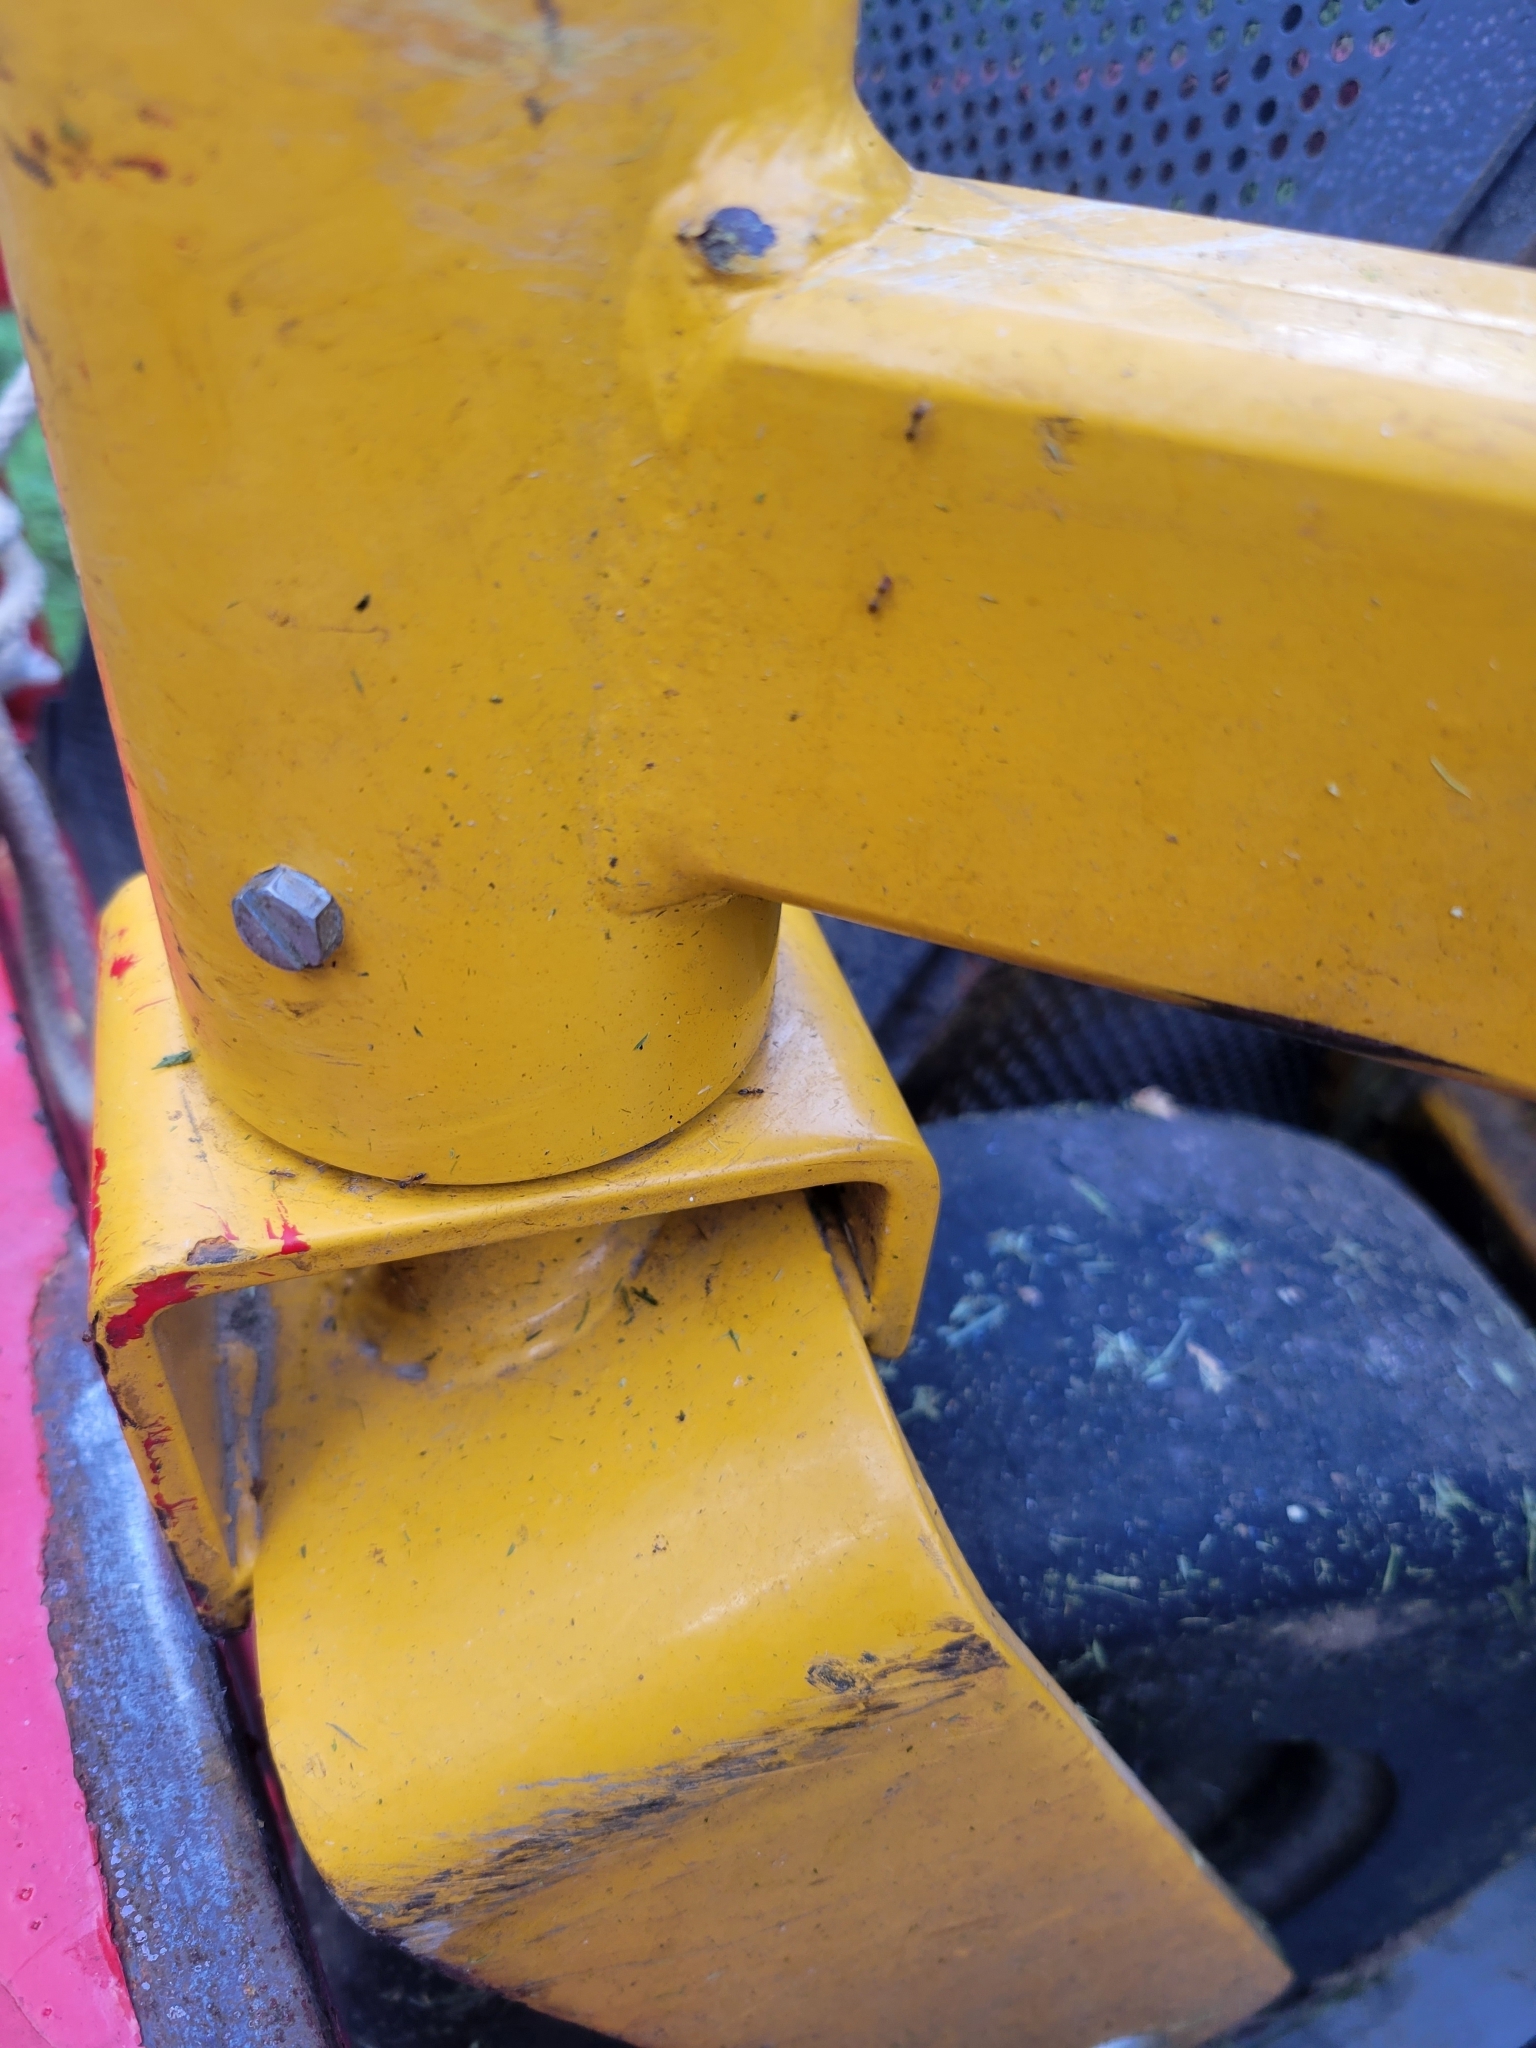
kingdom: Animalia
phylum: Arthropoda
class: Insecta
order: Hymenoptera
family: Formicidae
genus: Tapinoma
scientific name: Tapinoma sessile
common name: Odorous house ant
